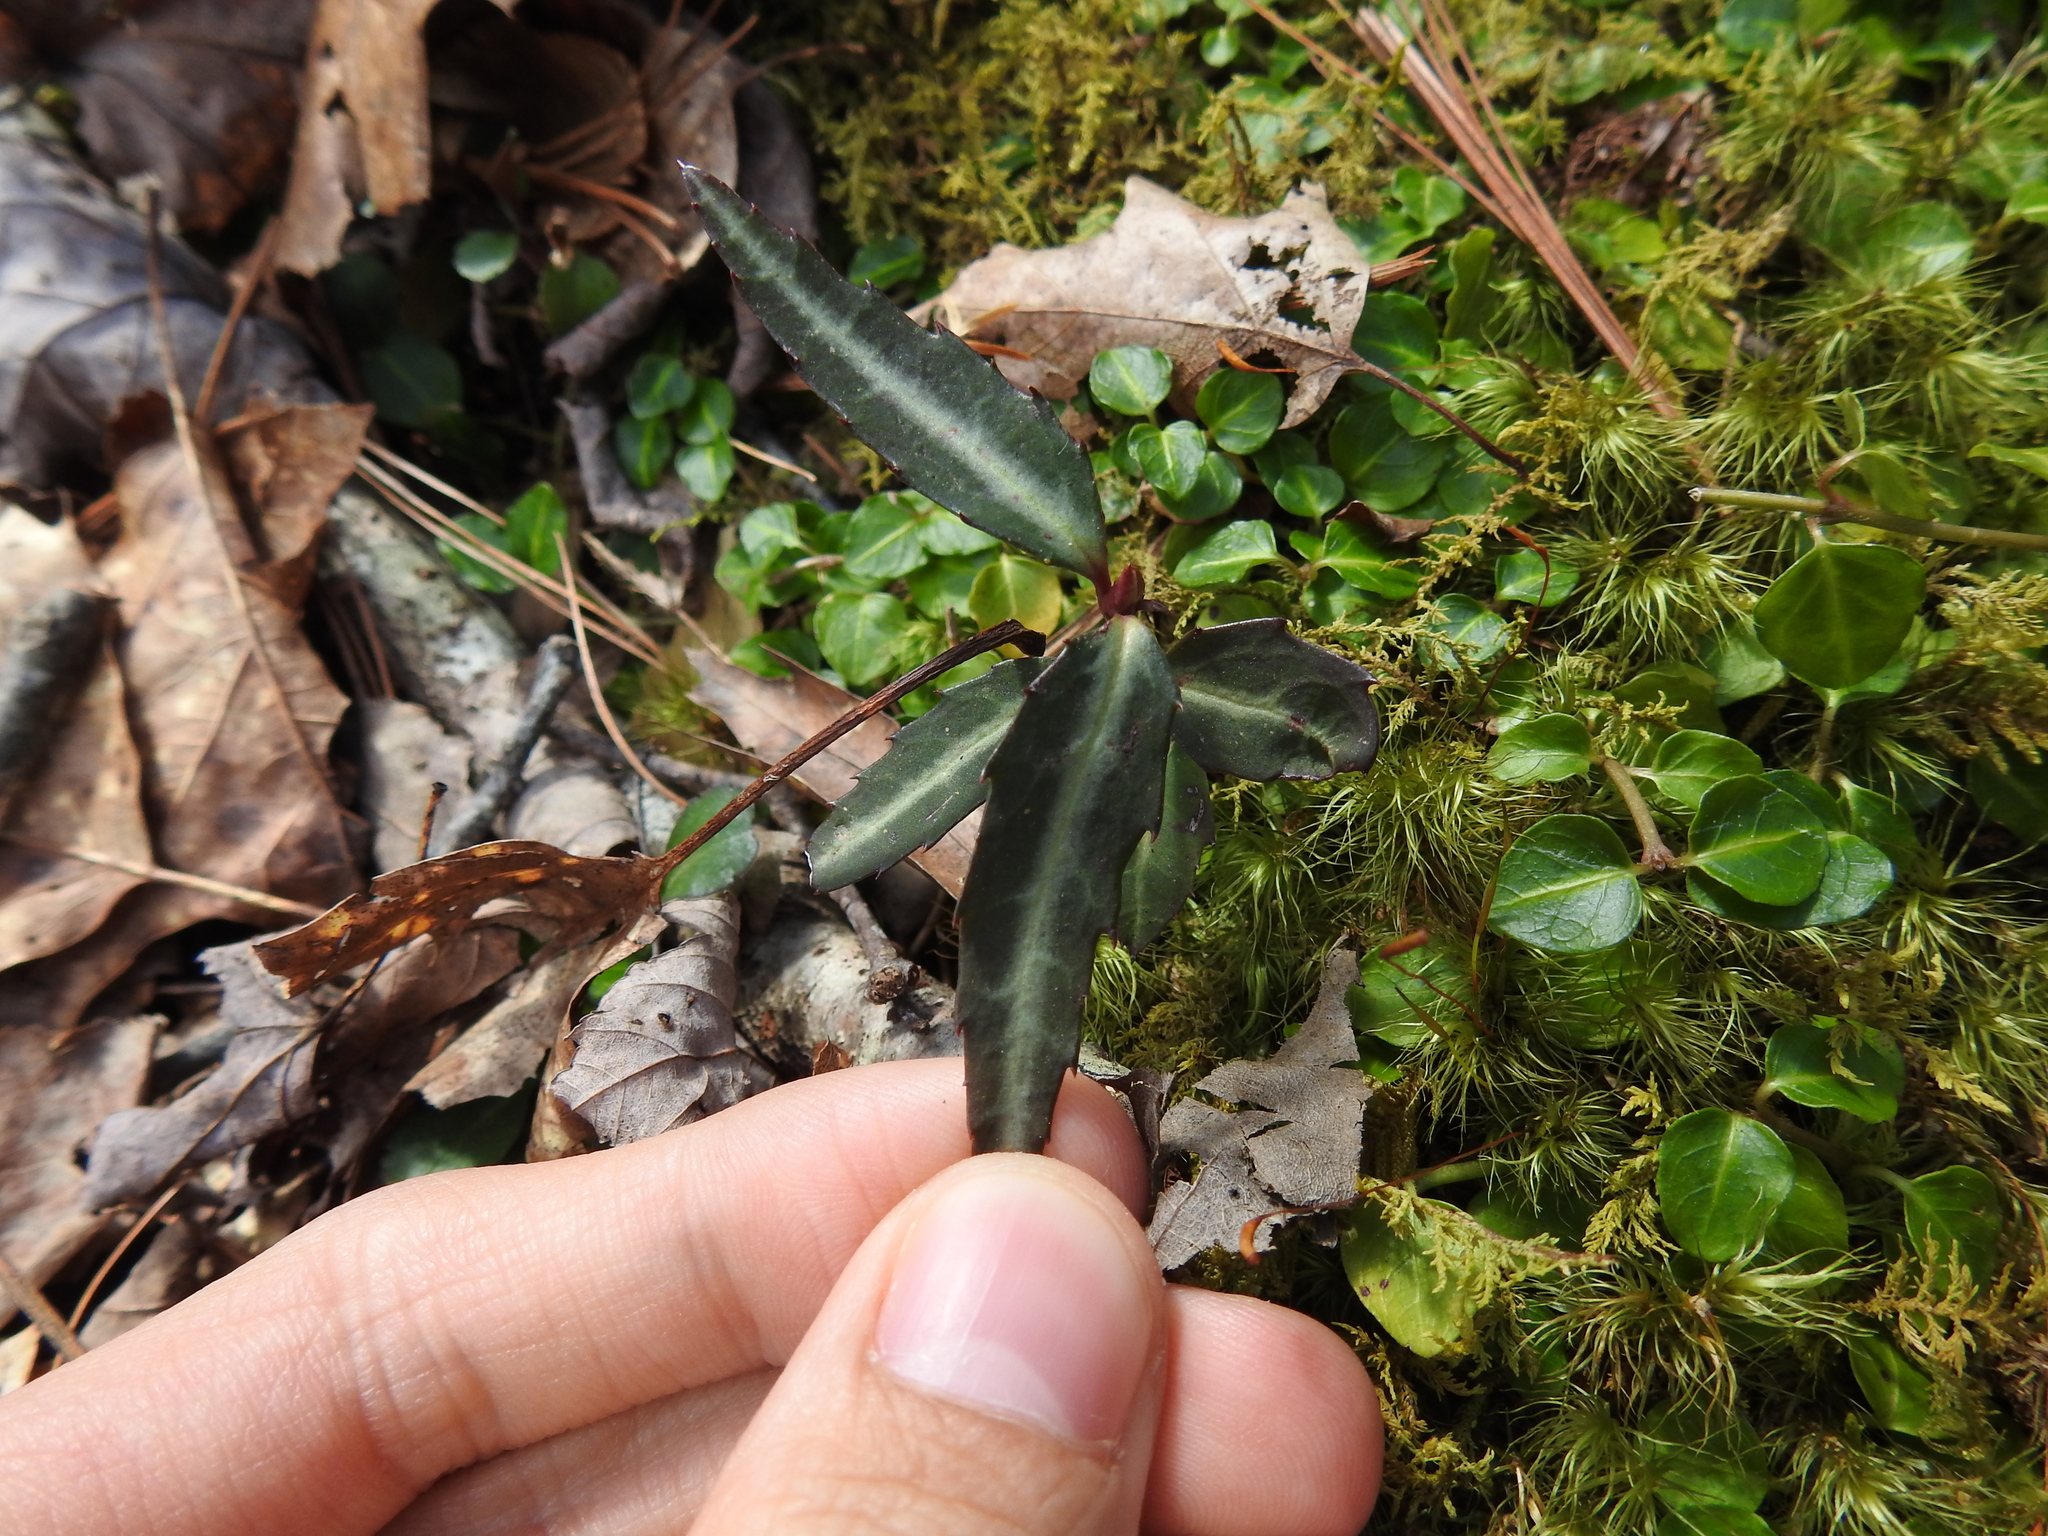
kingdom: Plantae
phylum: Tracheophyta
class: Magnoliopsida
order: Ericales
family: Ericaceae
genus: Chimaphila
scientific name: Chimaphila maculata
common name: Spotted pipsissewa
